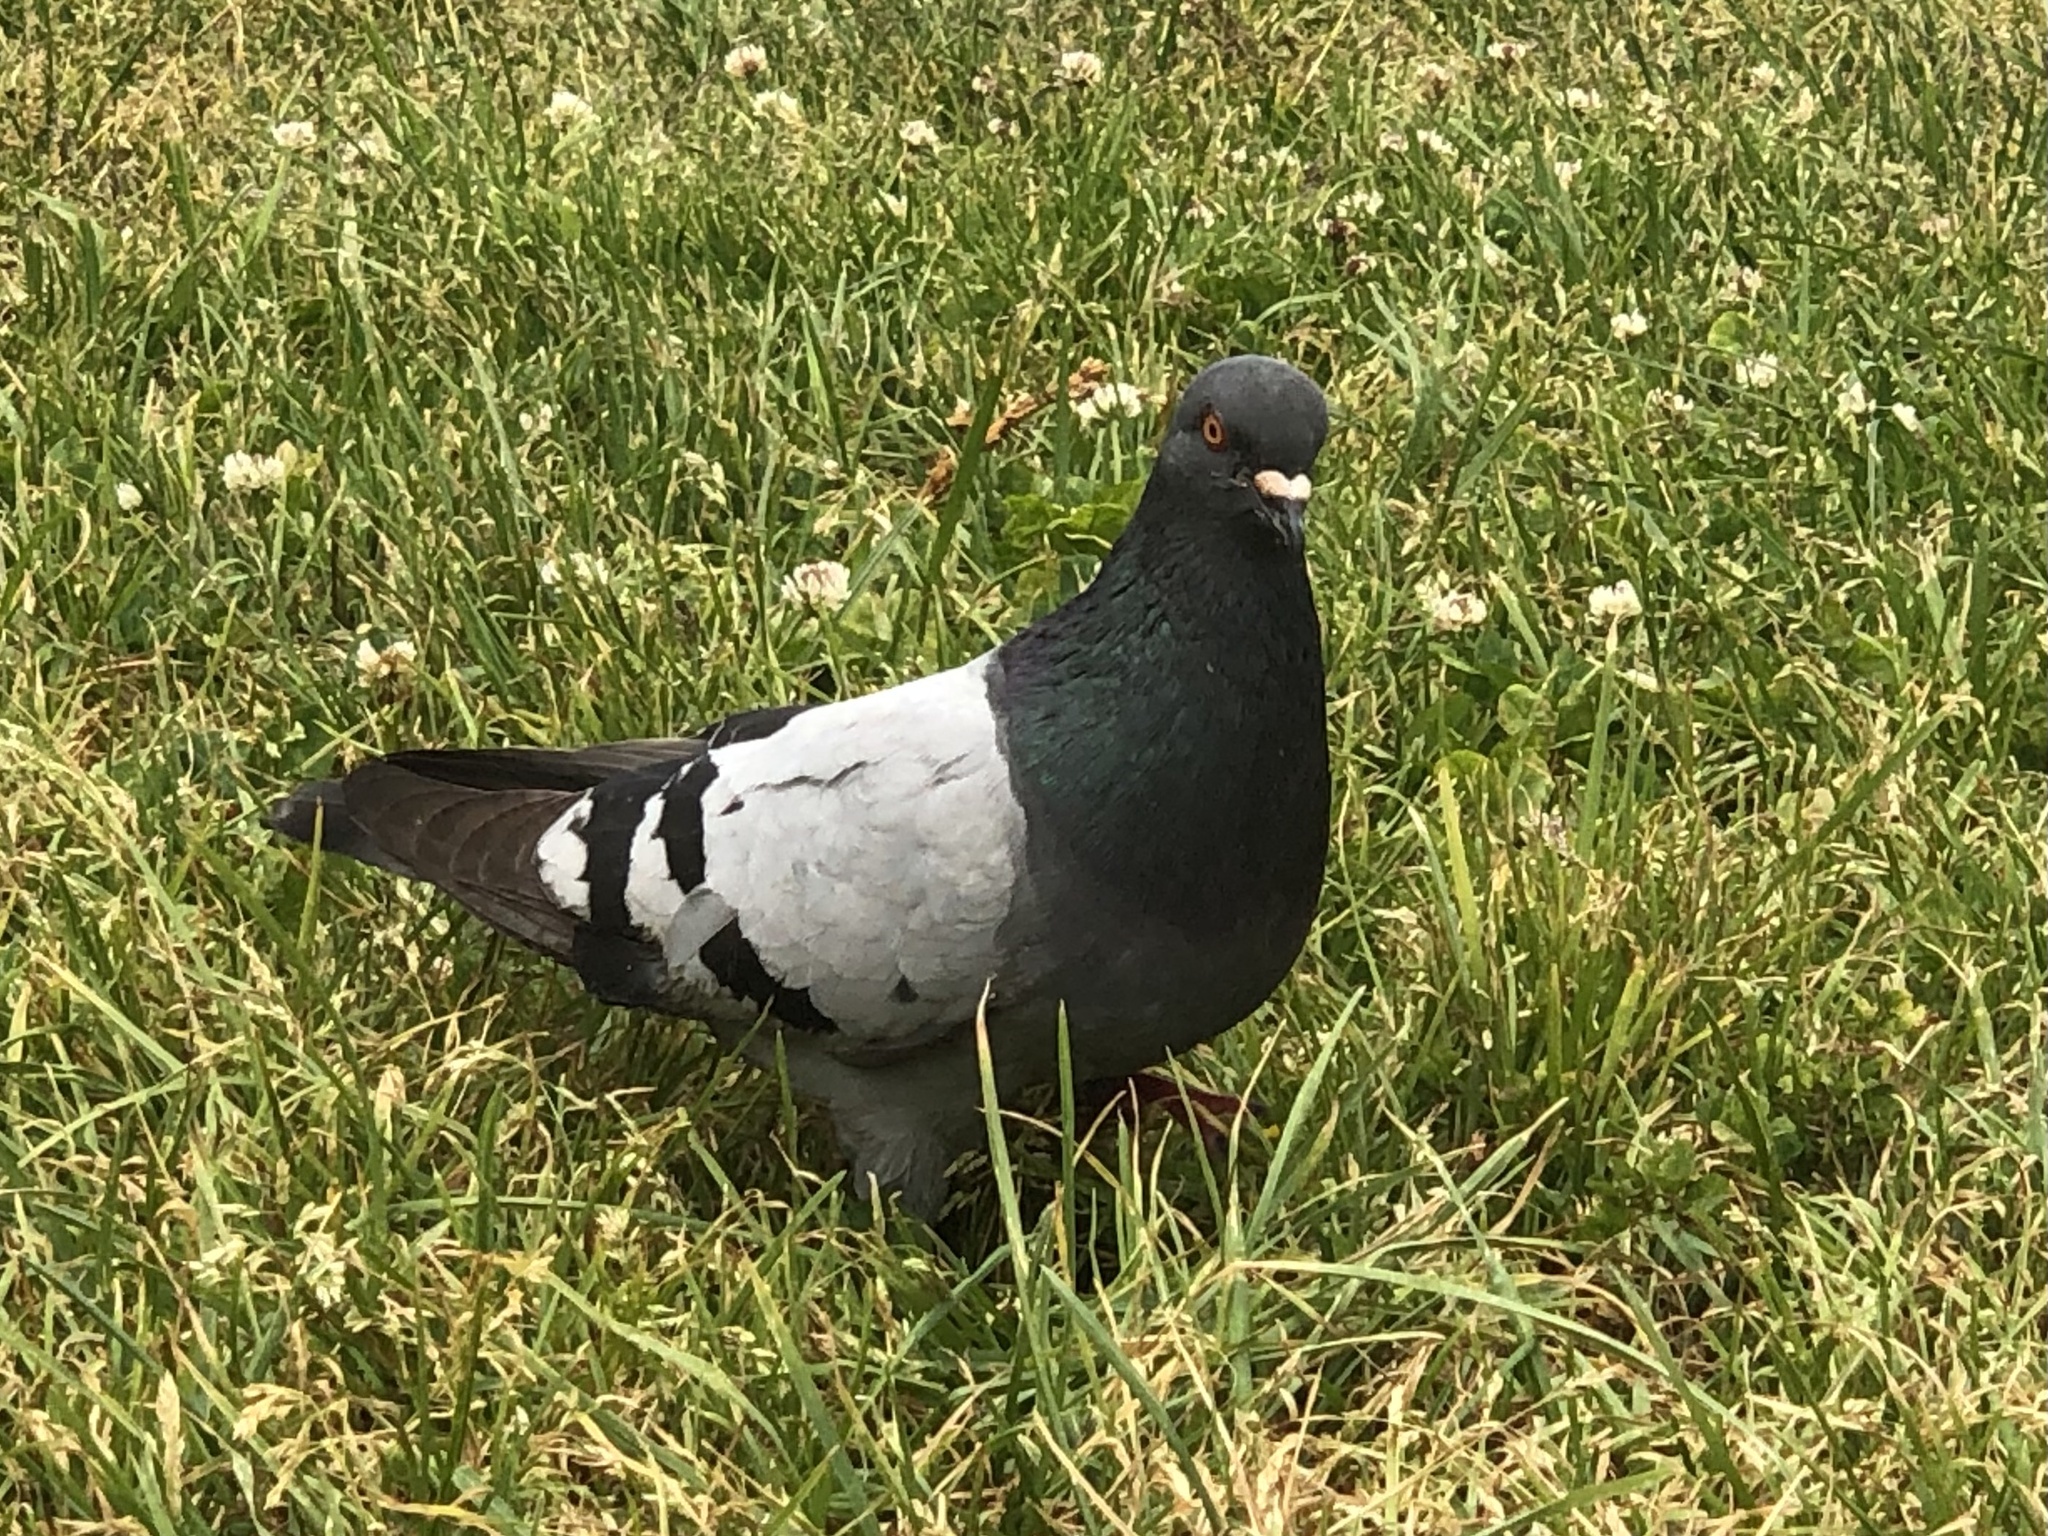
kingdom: Animalia
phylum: Chordata
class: Aves
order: Columbiformes
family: Columbidae
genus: Columba
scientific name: Columba livia
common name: Rock pigeon
